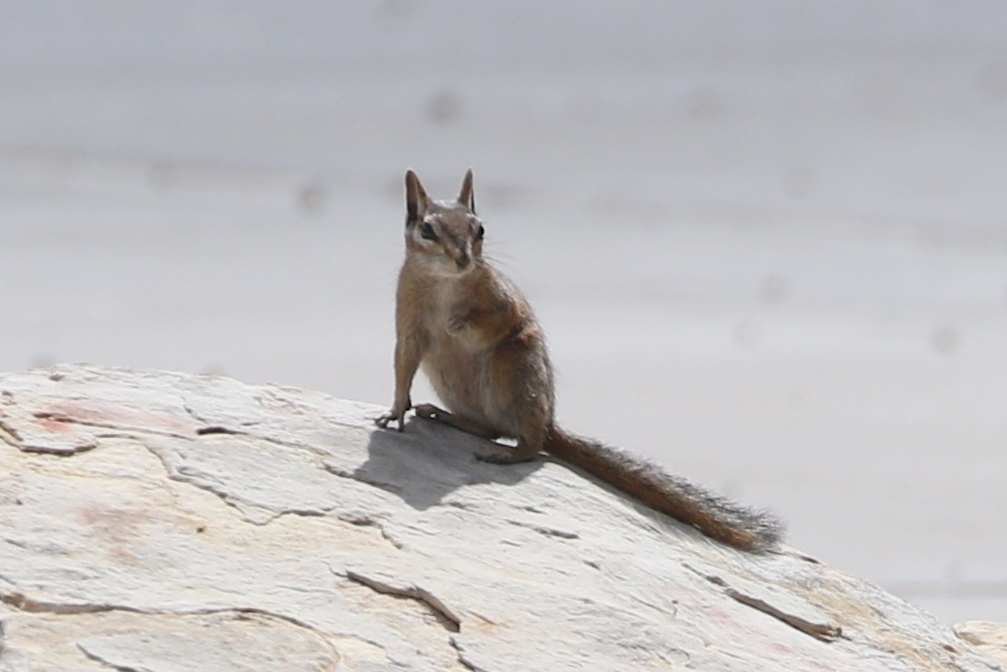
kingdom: Animalia
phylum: Chordata
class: Mammalia
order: Rodentia
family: Sciuridae
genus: Tamias
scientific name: Tamias dorsalis
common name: Cliff chipmunk
